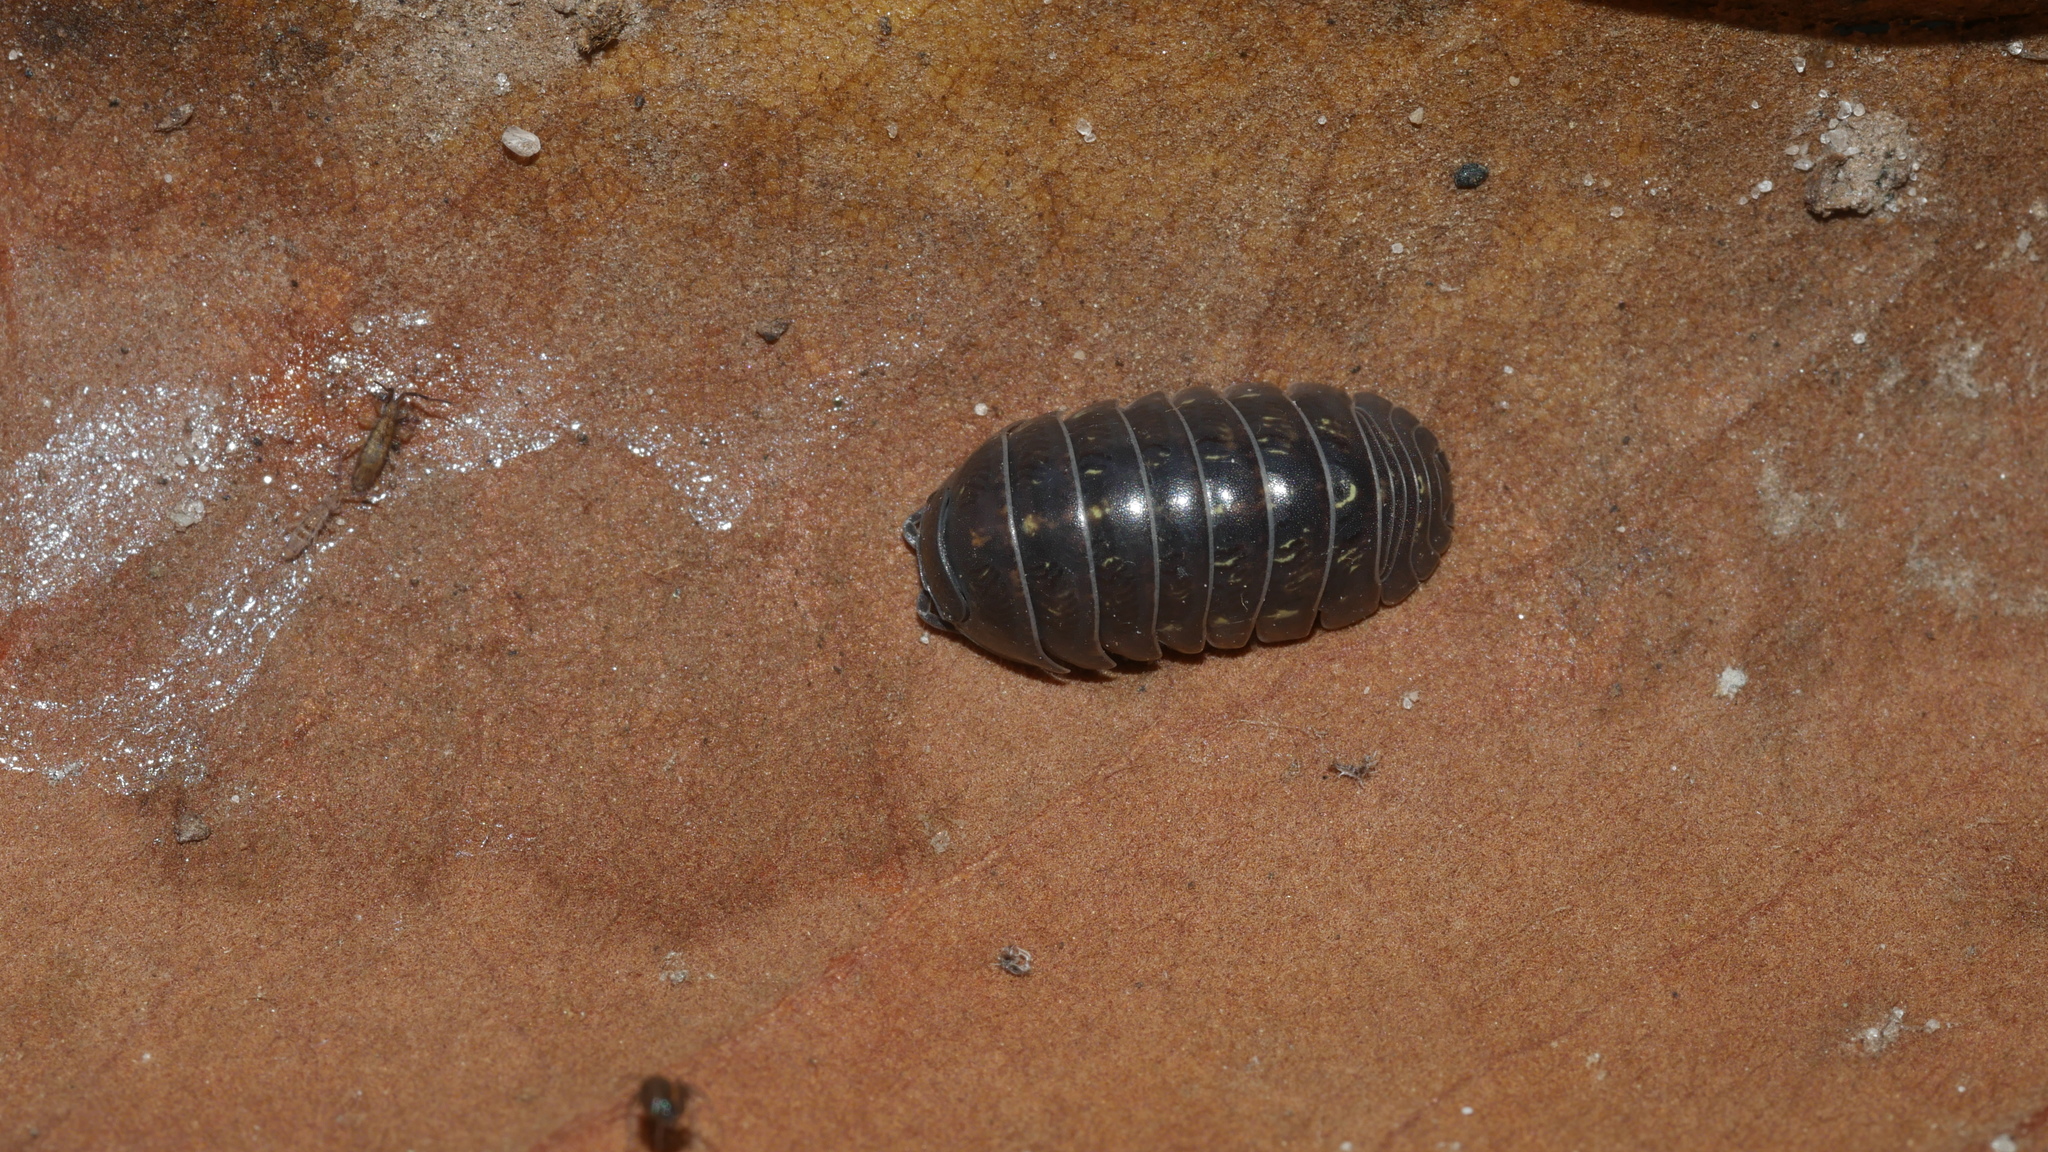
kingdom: Animalia
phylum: Arthropoda
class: Malacostraca
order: Isopoda
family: Armadillidiidae
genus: Armadillidium
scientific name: Armadillidium vulgare
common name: Common pill woodlouse
